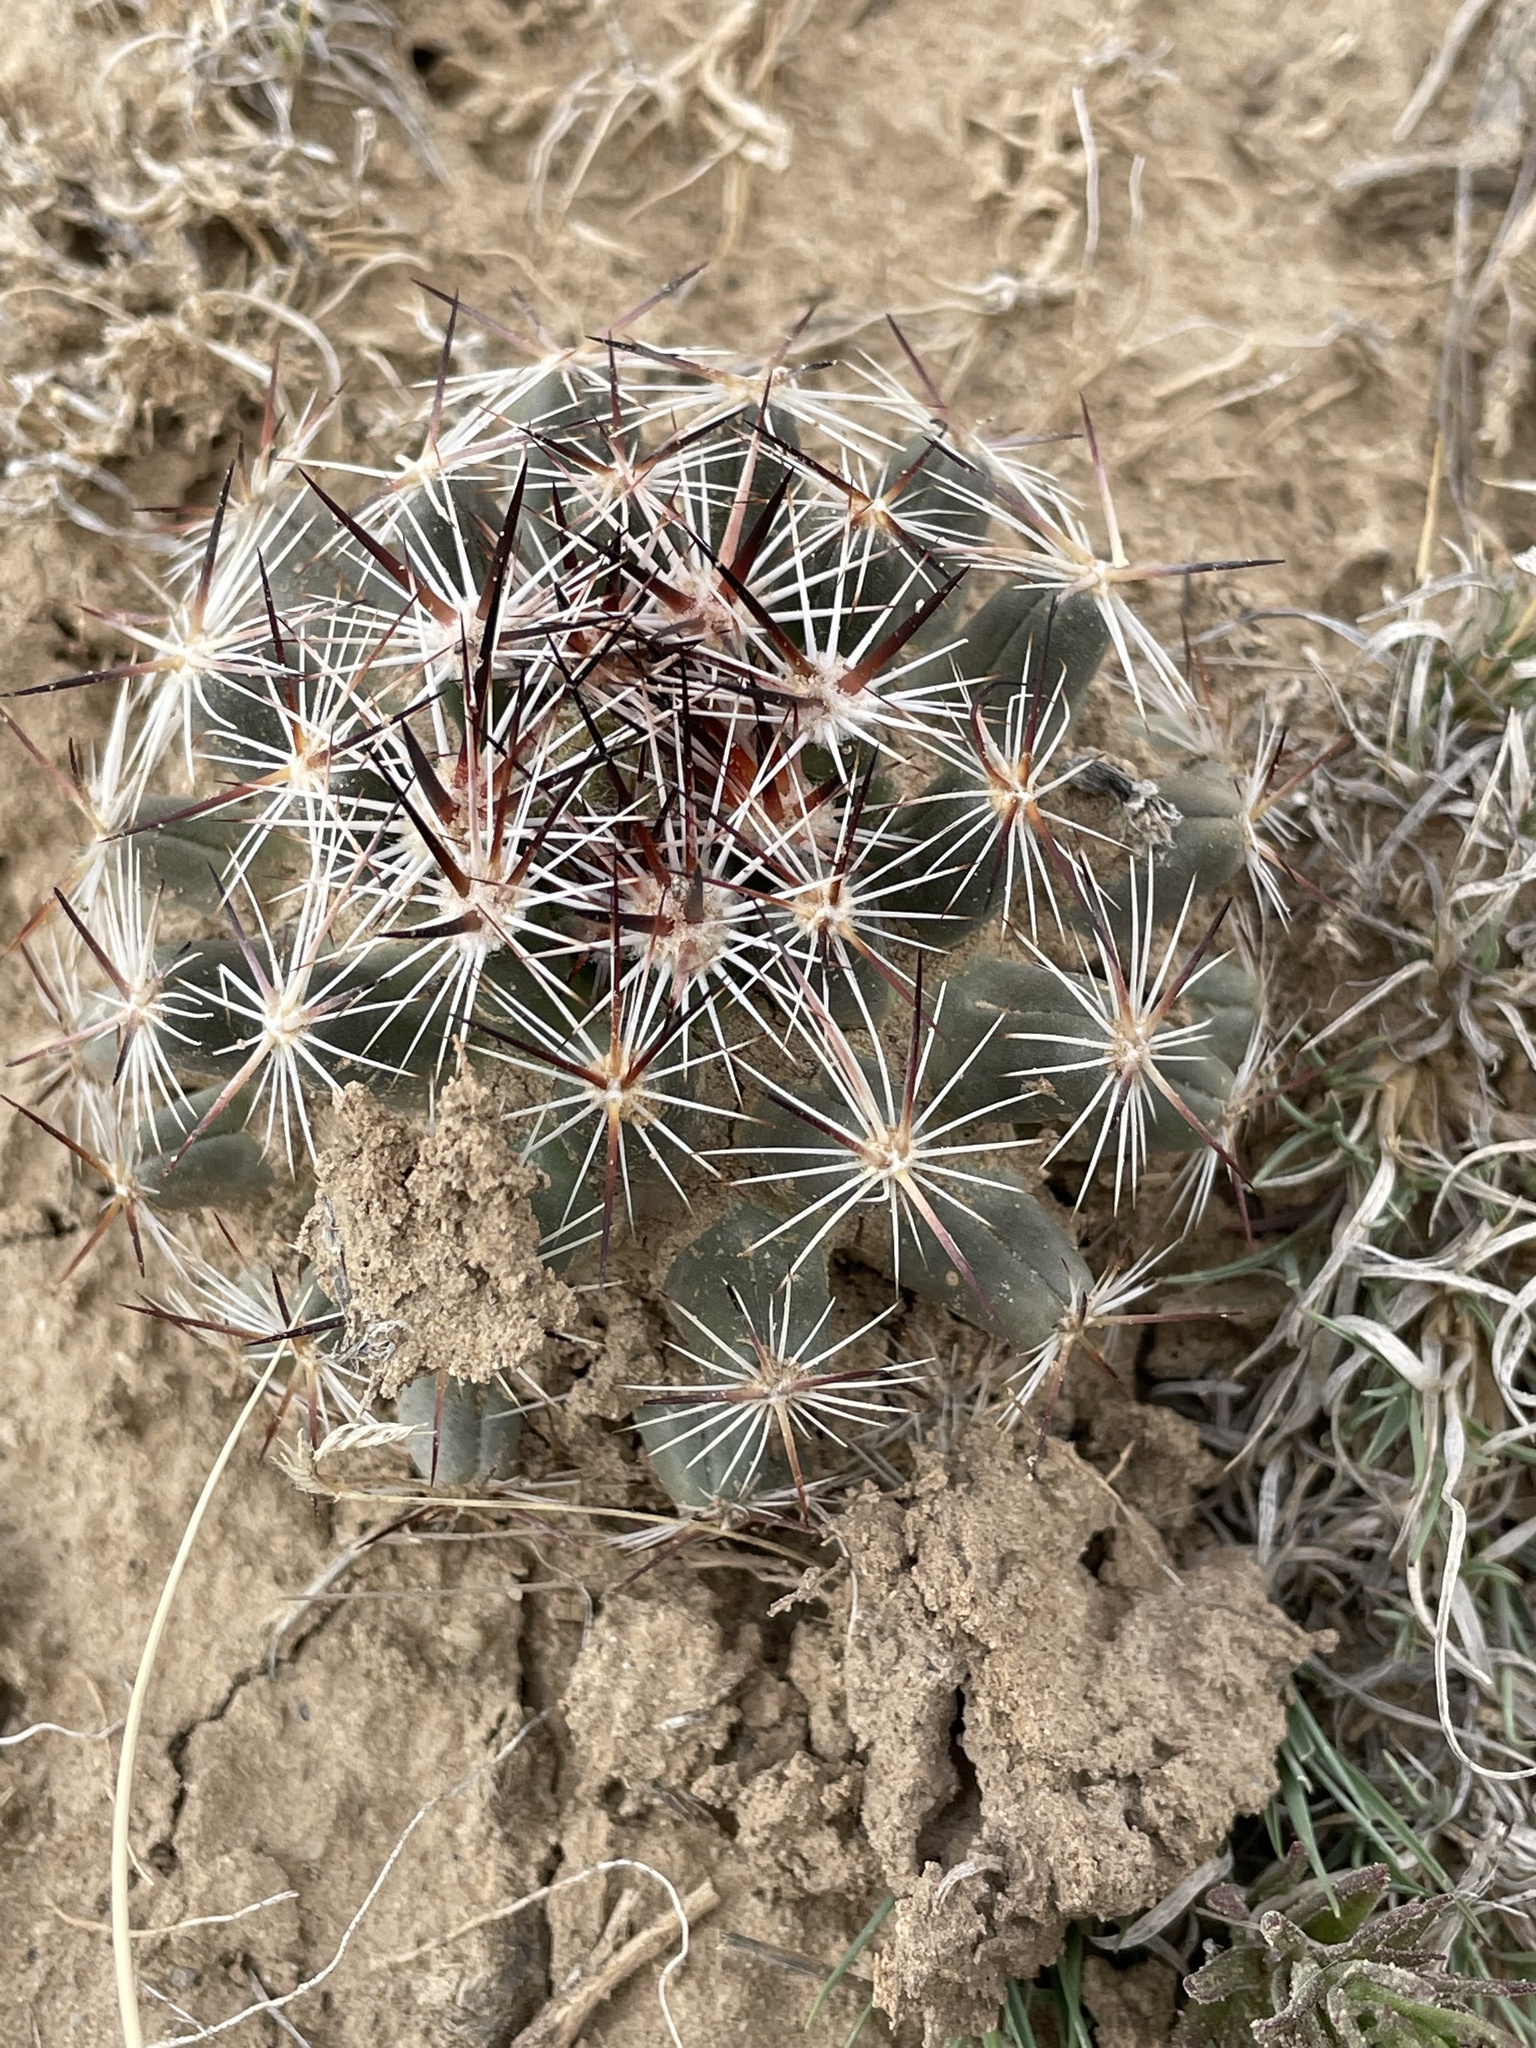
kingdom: Plantae
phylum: Tracheophyta
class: Magnoliopsida
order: Caryophyllales
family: Cactaceae
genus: Pelecyphora
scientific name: Pelecyphora vivipara
